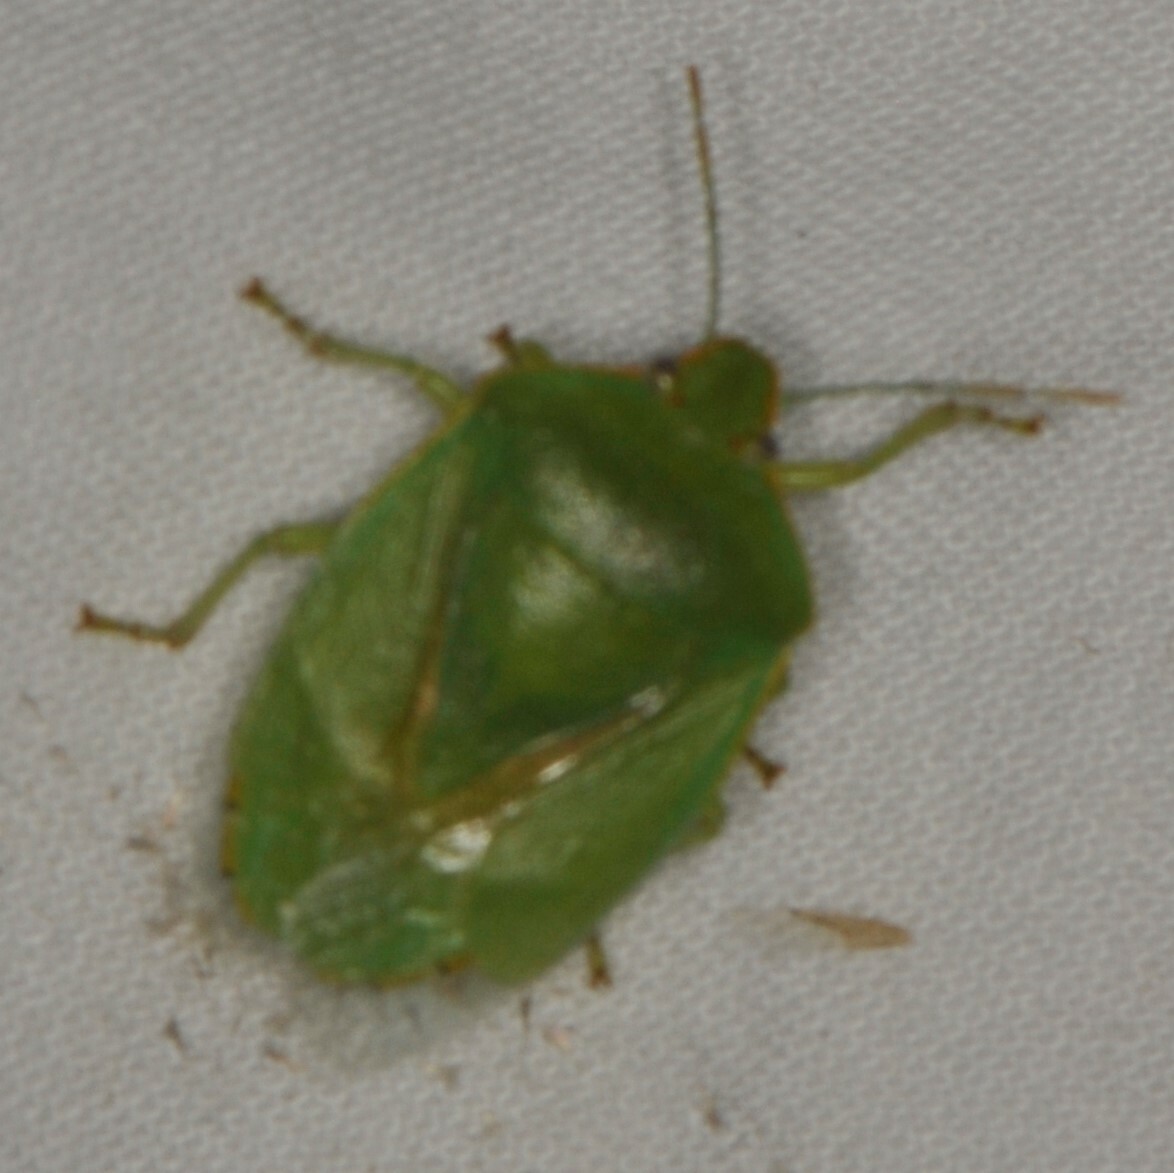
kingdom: Animalia
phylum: Arthropoda
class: Insecta
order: Hemiptera
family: Pentatomidae
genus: Chinavia
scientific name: Chinavia hilaris
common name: Green stink bug
